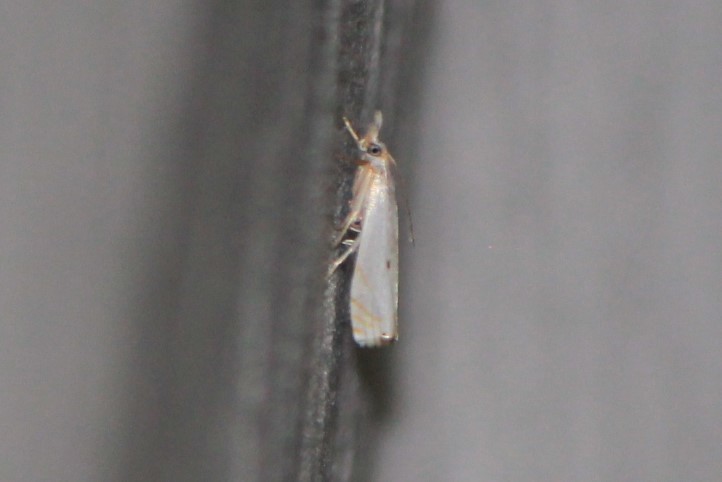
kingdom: Animalia
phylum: Arthropoda
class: Insecta
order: Lepidoptera
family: Crambidae
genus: Microcrambus
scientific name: Microcrambus biguttellus
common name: Gold-stripe grass-veneer moth
